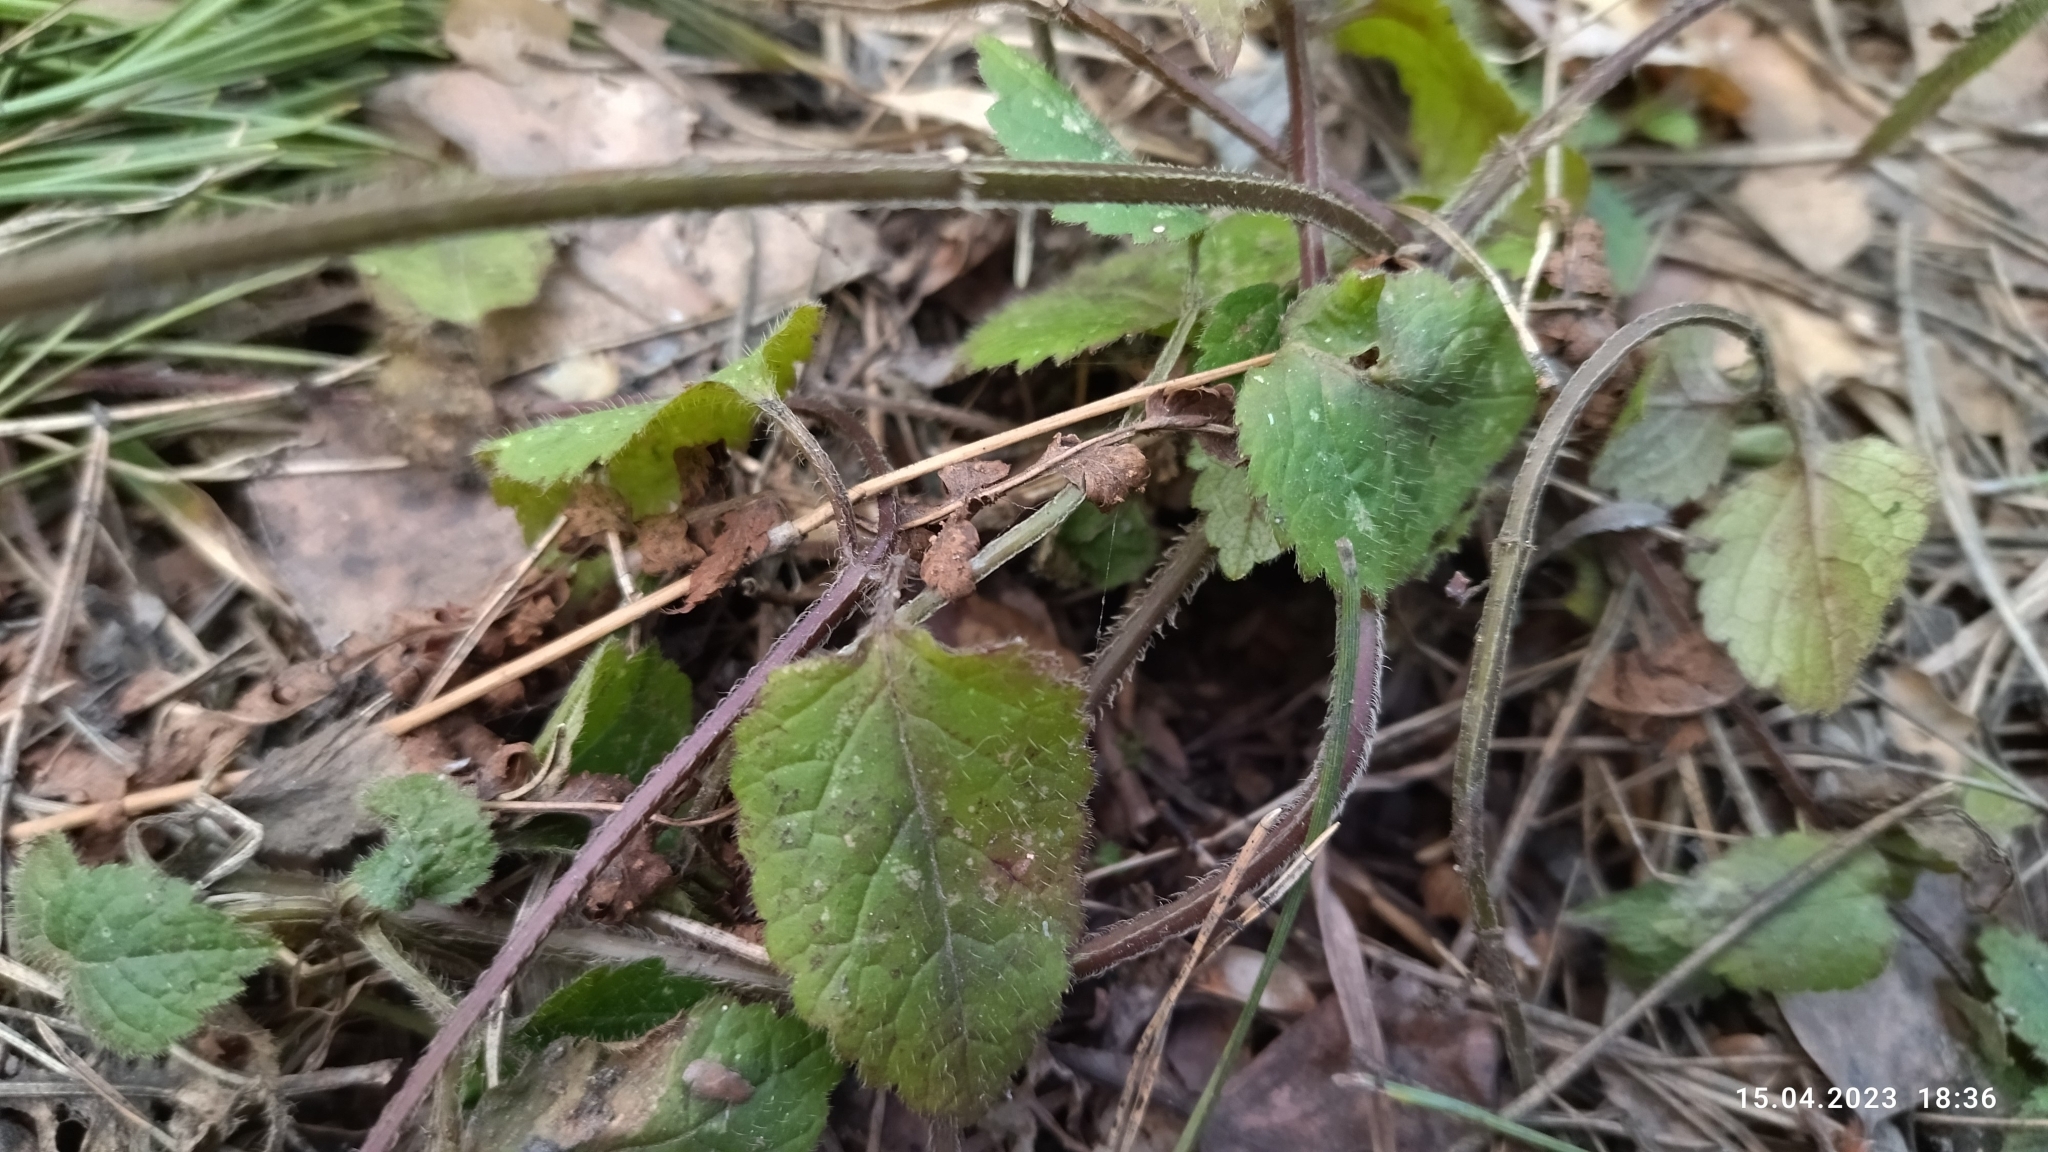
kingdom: Plantae
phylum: Tracheophyta
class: Magnoliopsida
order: Lamiales
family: Lamiaceae
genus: Lamium
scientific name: Lamium galeobdolon
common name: Yellow archangel
